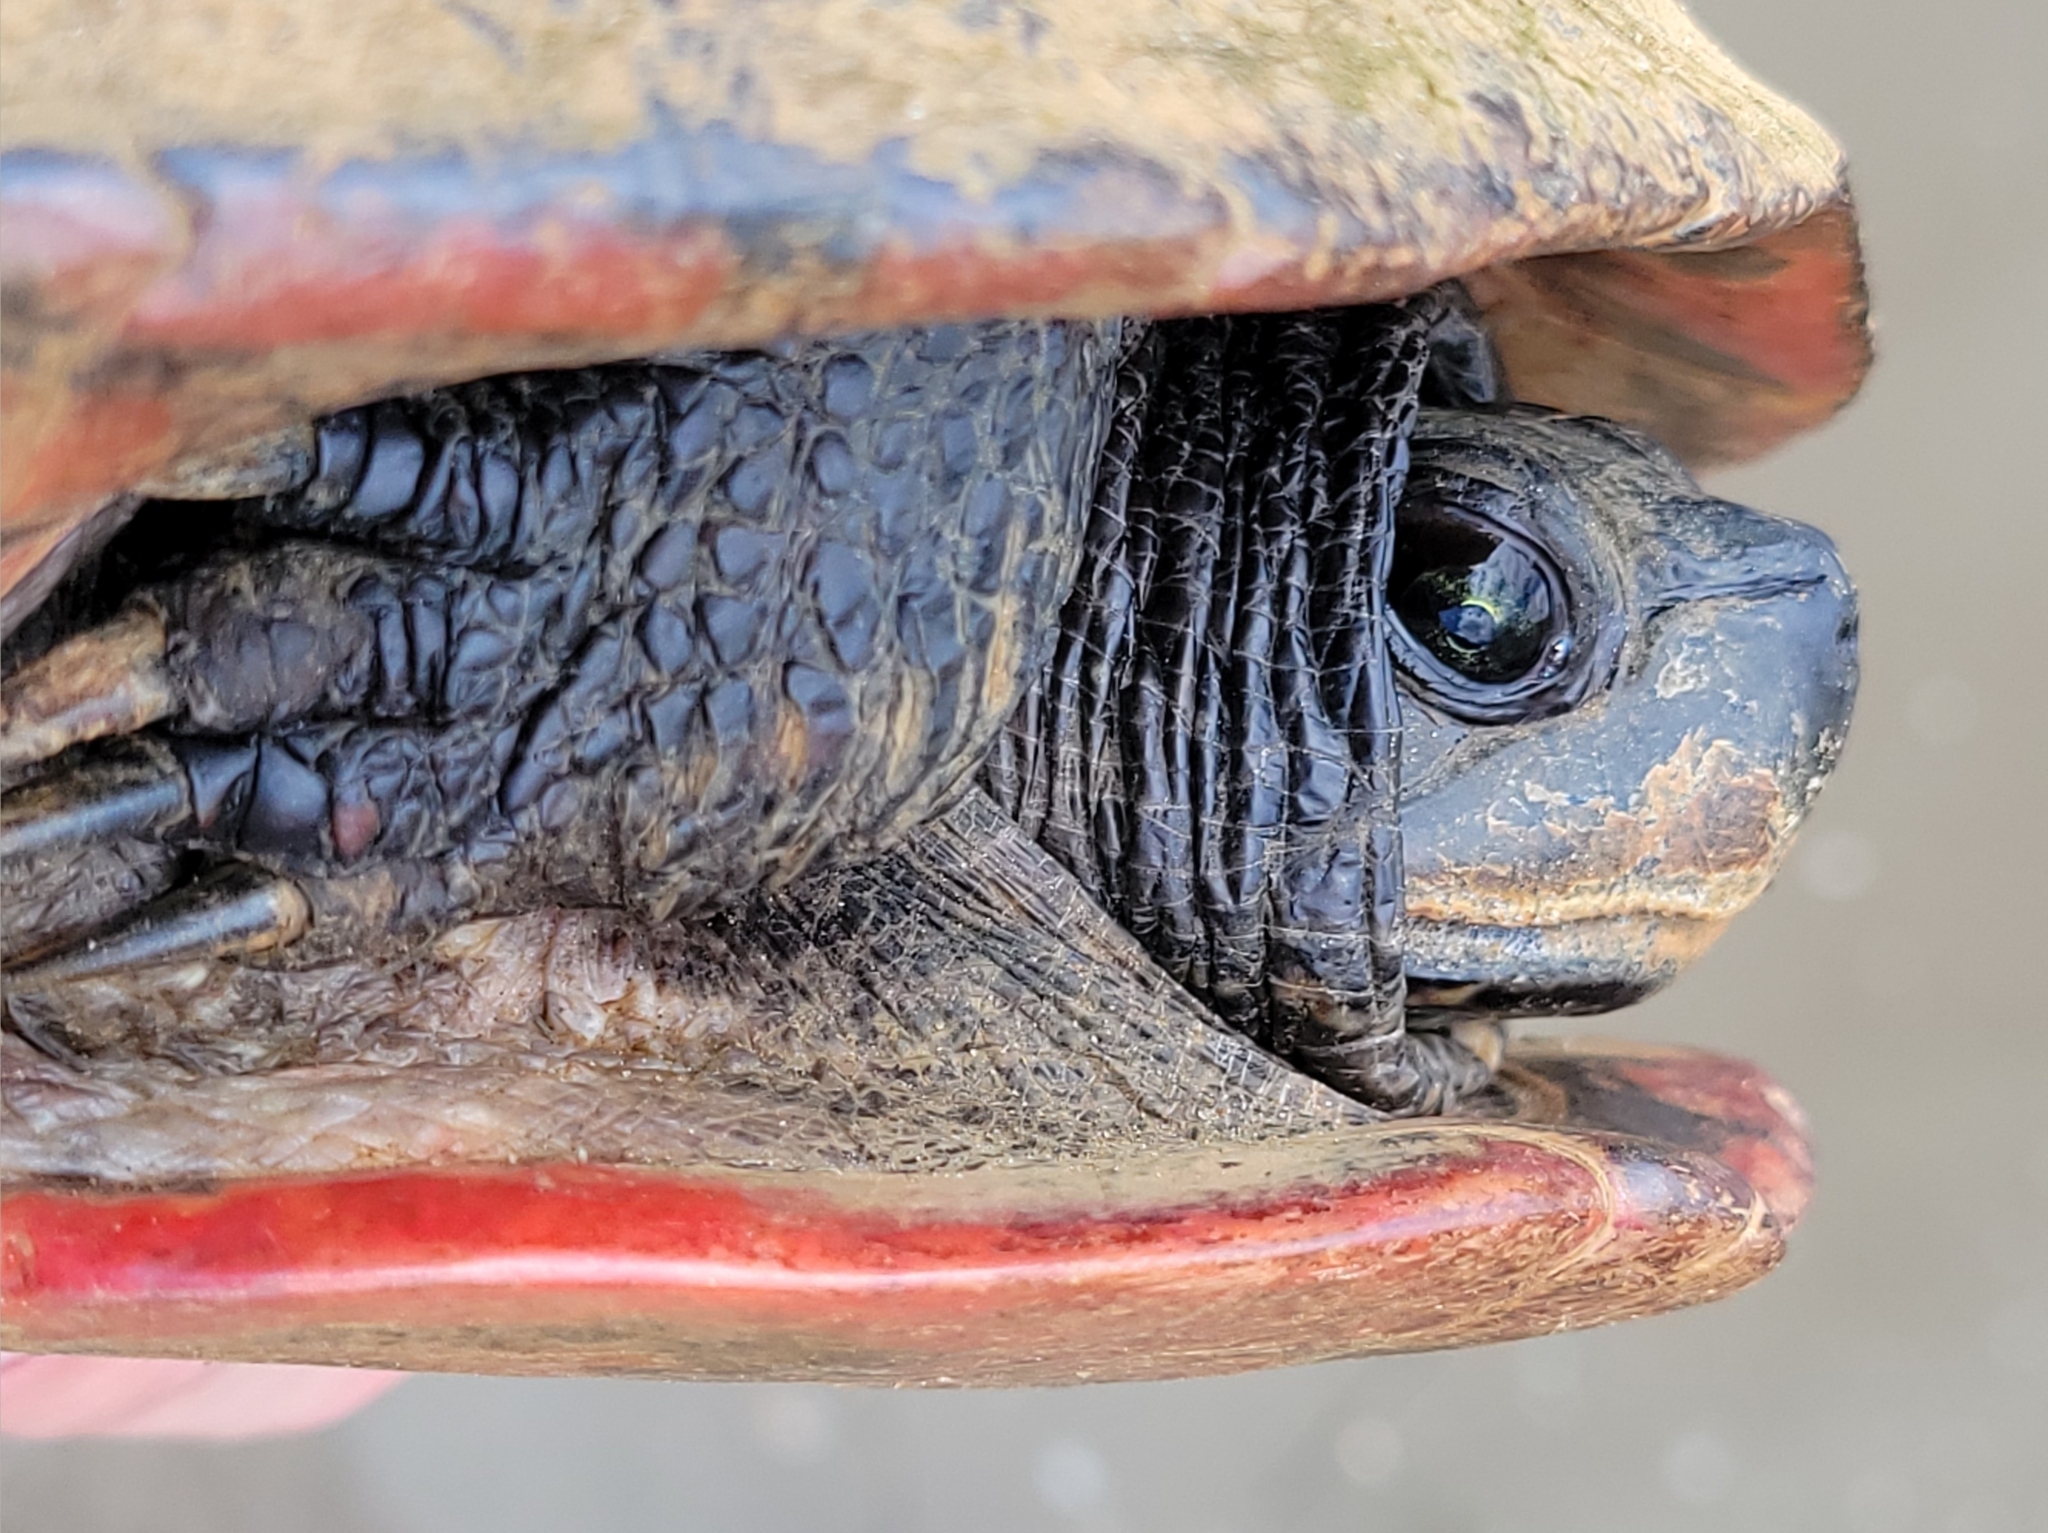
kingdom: Animalia
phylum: Chordata
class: Testudines
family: Emydidae
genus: Pseudemys
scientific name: Pseudemys rubriventris
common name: American red-bellied turtle
